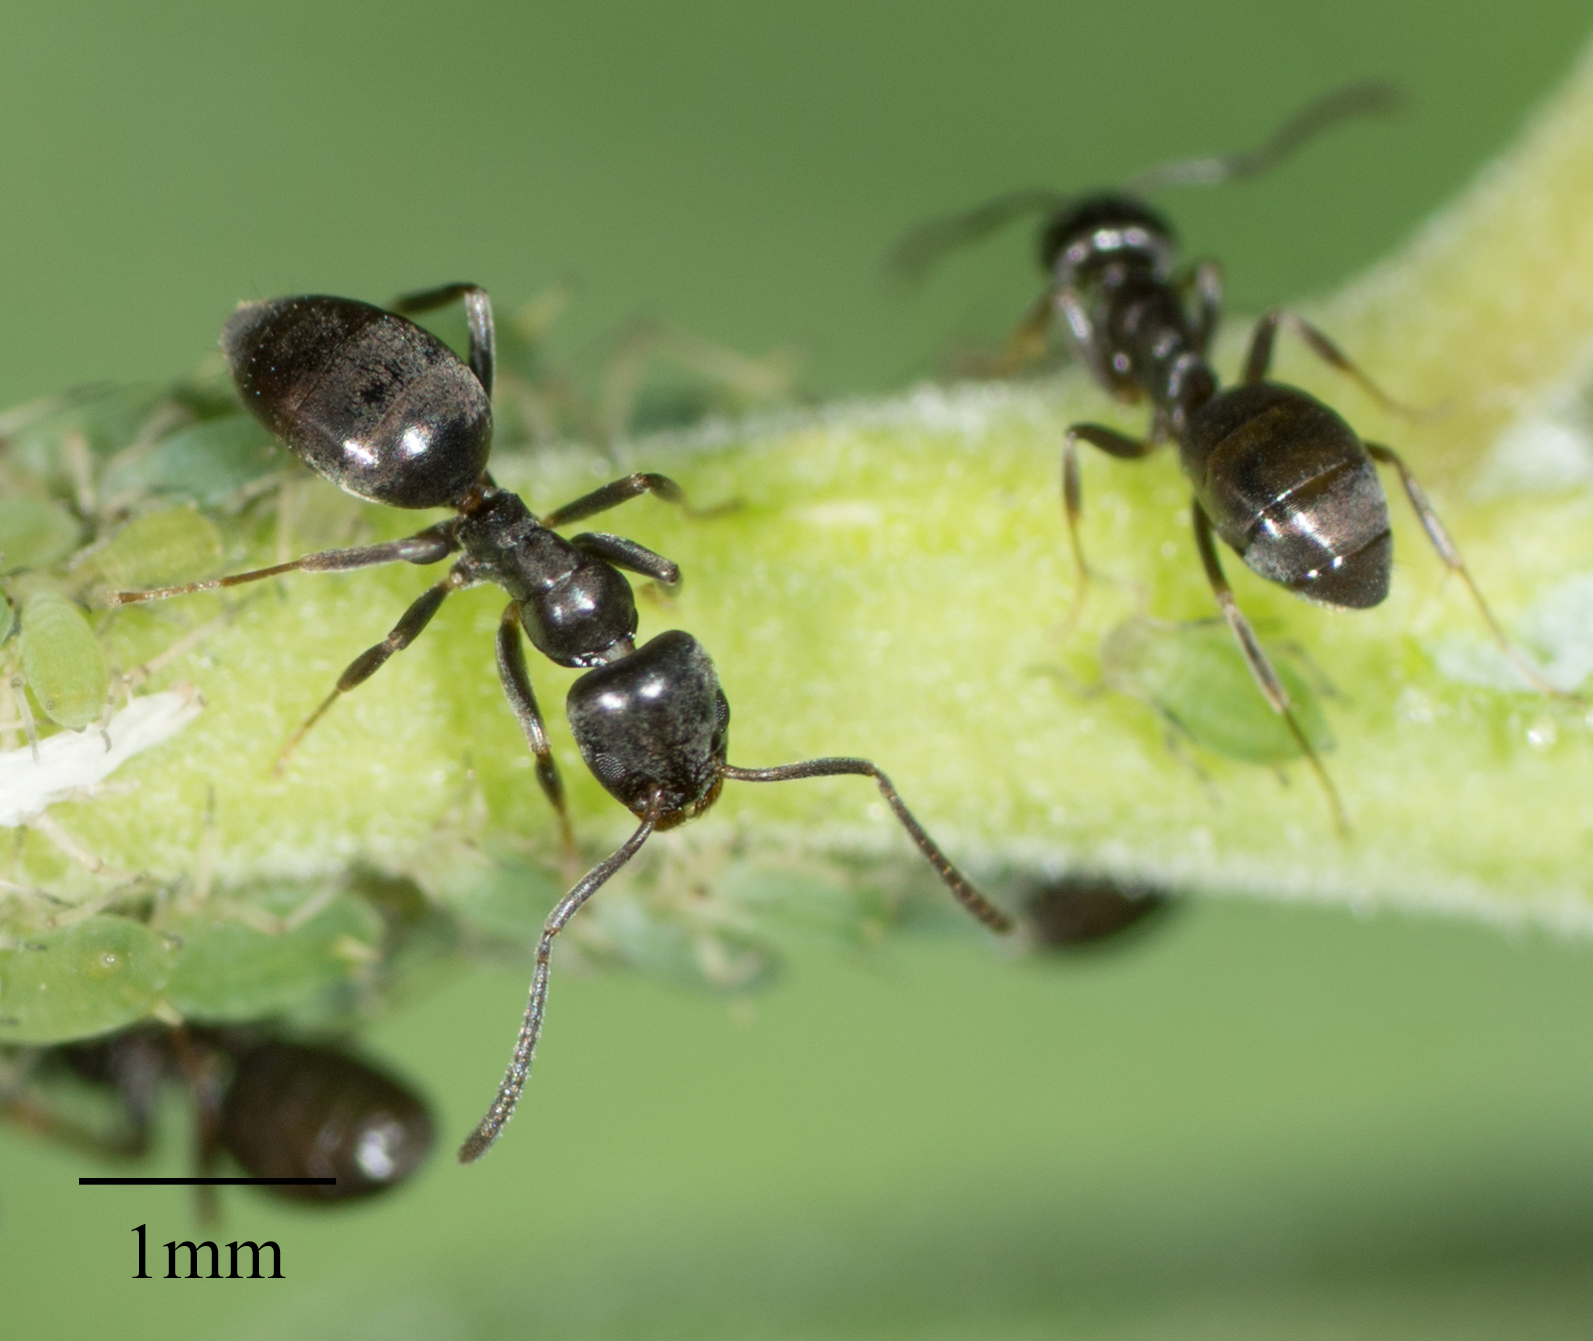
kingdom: Animalia
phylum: Arthropoda
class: Insecta
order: Hymenoptera
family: Formicidae
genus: Tapinoma
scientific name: Tapinoma sessile
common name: Odorous house ant
